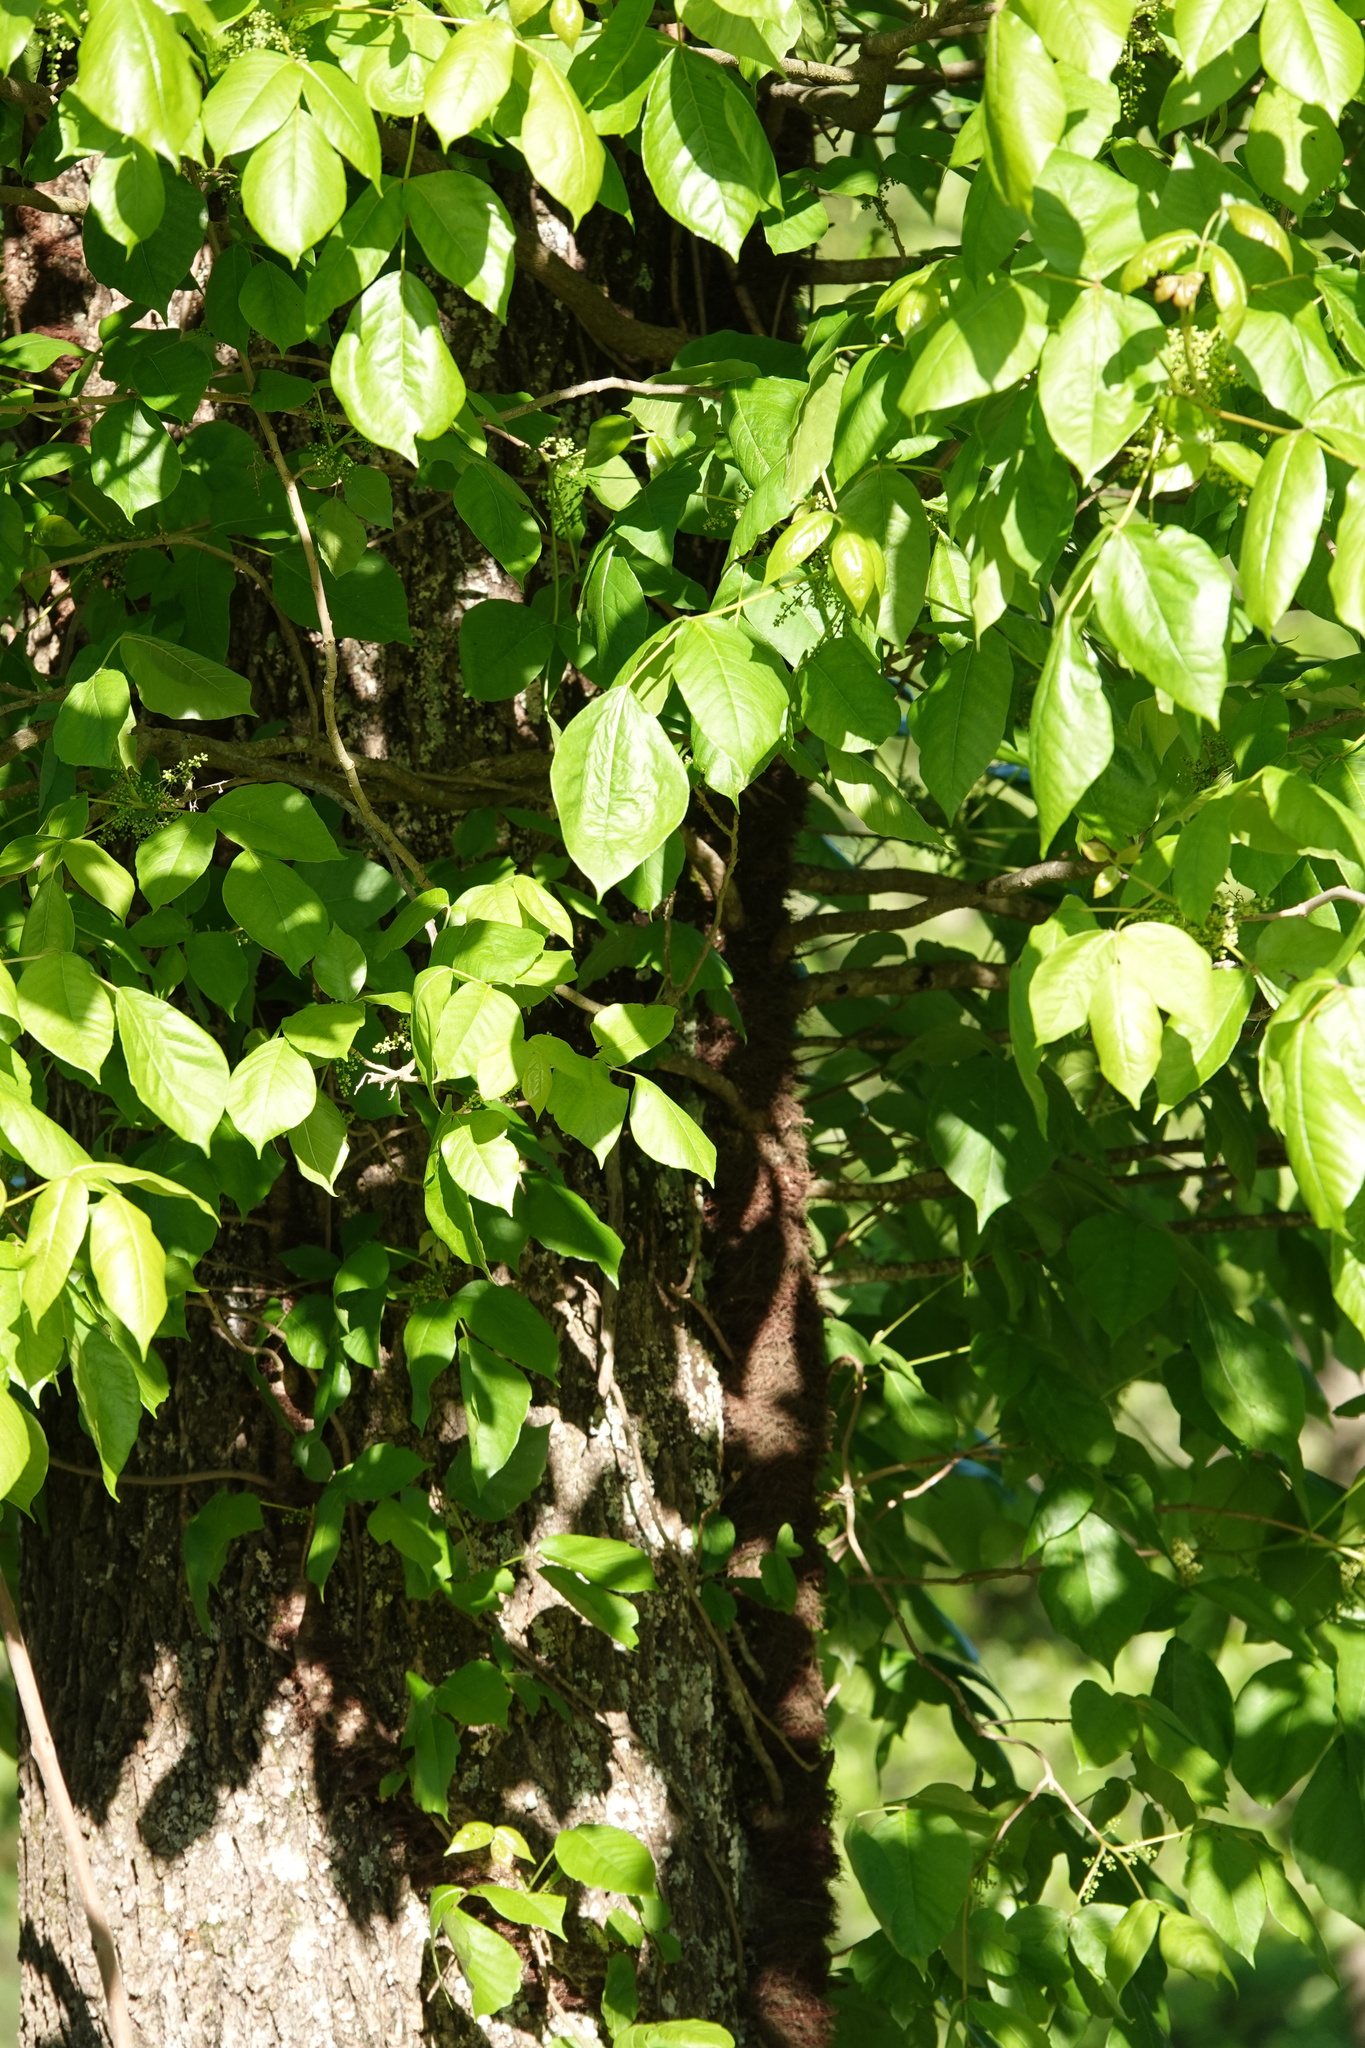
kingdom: Plantae
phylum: Tracheophyta
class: Magnoliopsida
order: Sapindales
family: Anacardiaceae
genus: Toxicodendron
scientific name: Toxicodendron radicans
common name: Poison ivy
